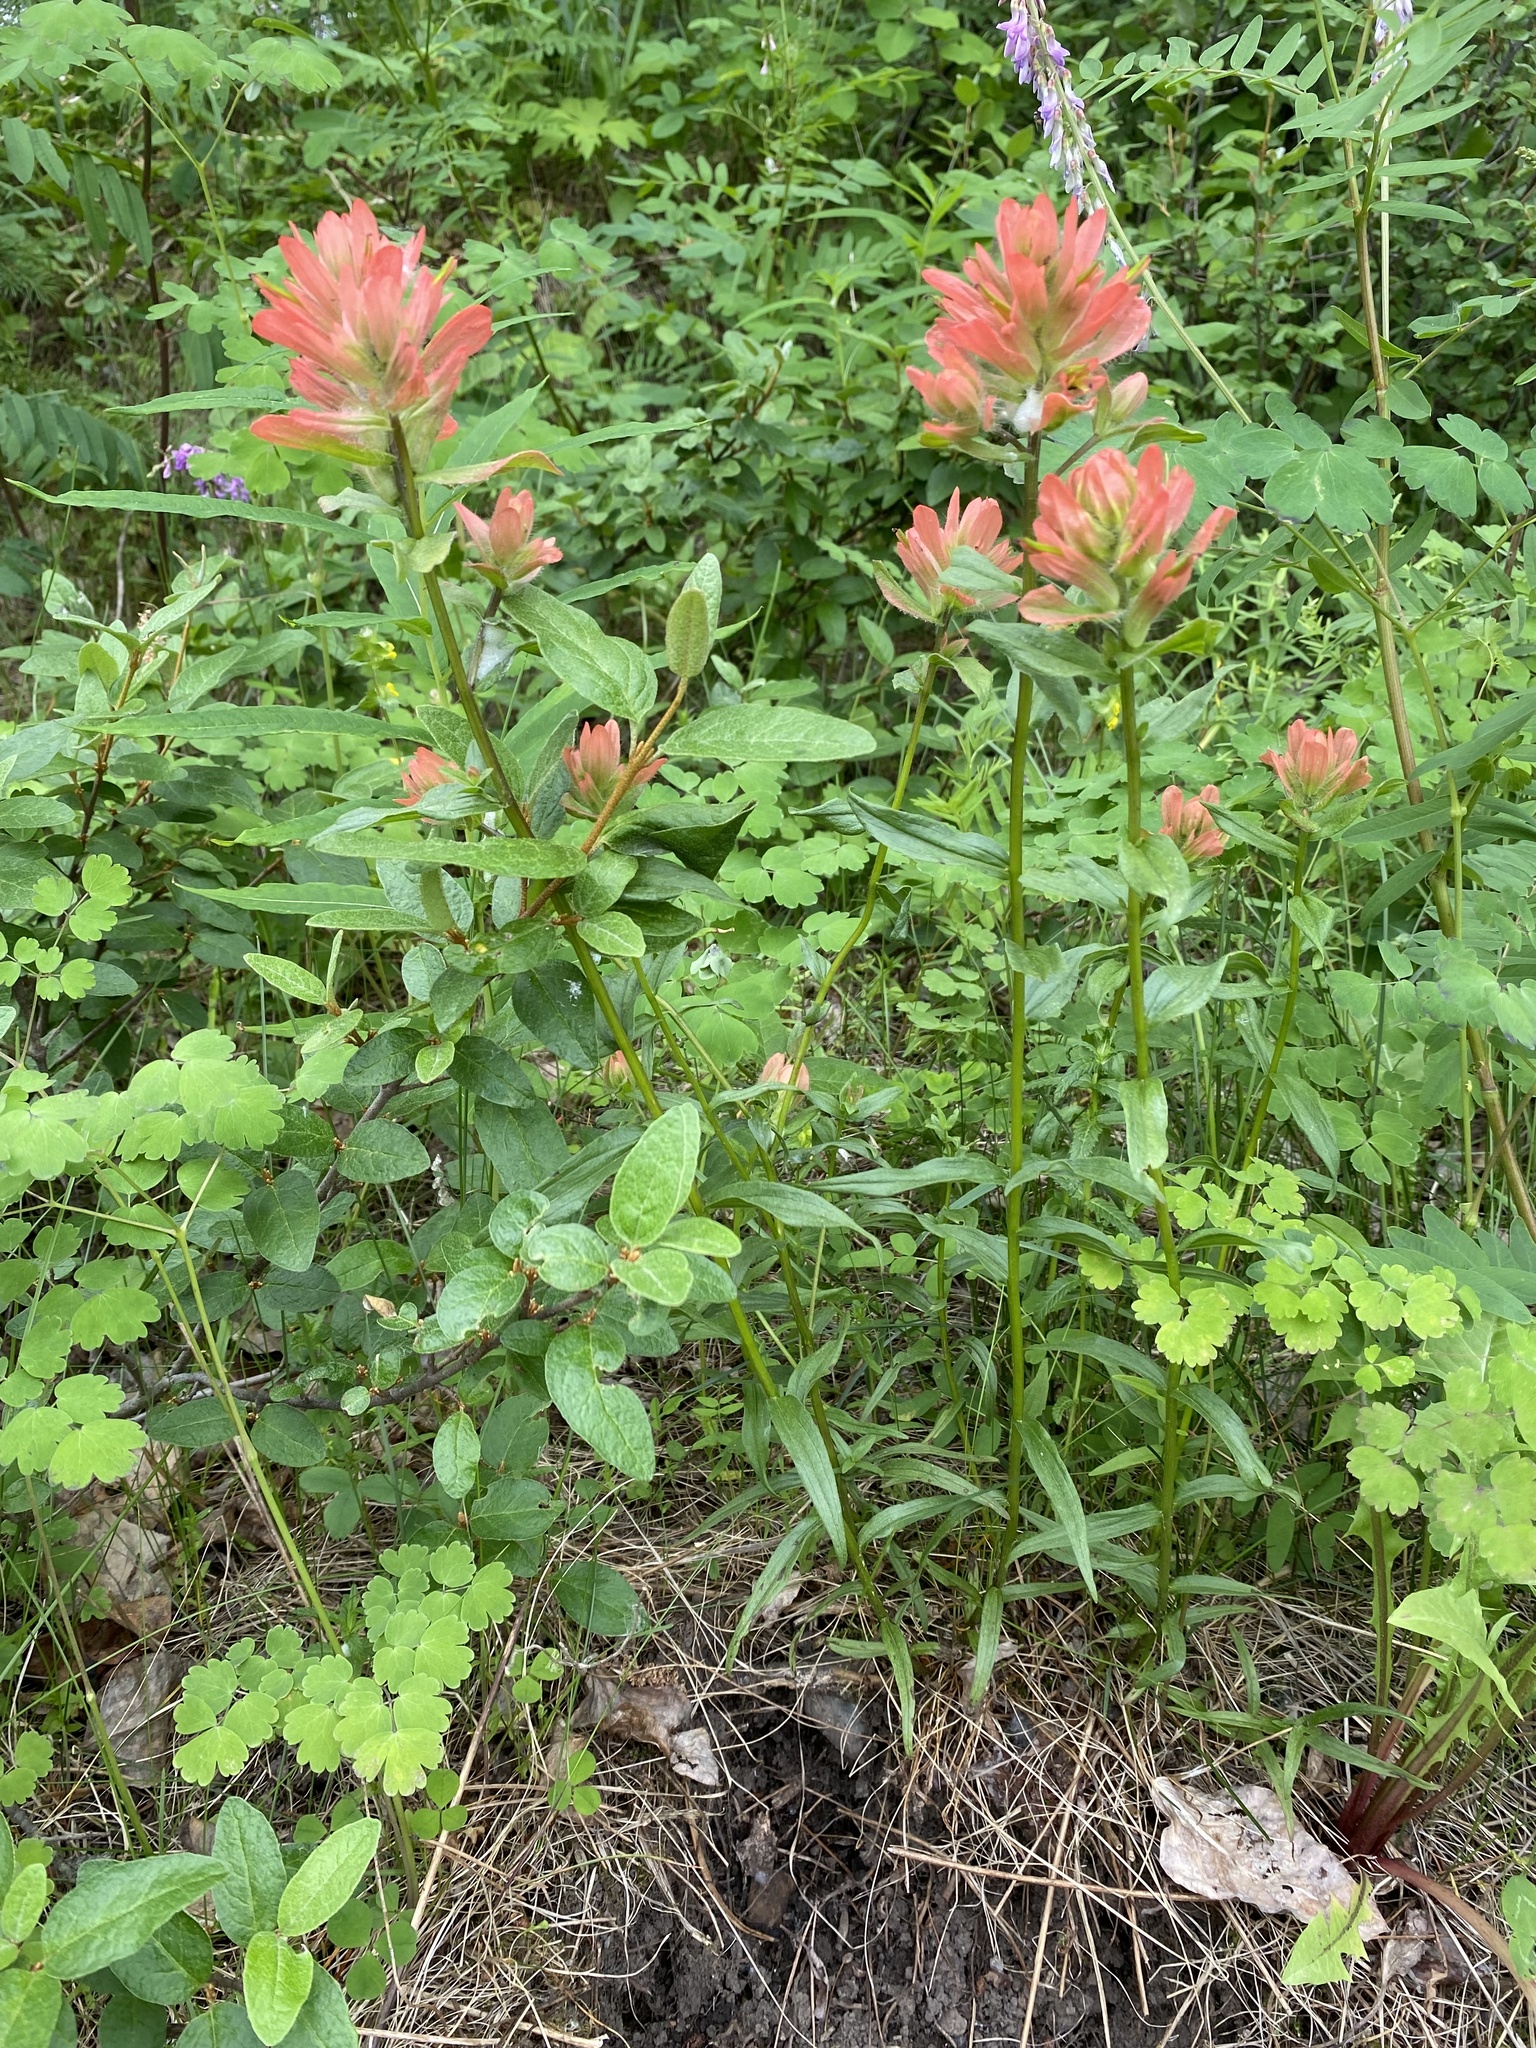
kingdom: Plantae
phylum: Tracheophyta
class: Magnoliopsida
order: Lamiales
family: Orobanchaceae
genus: Castilleja
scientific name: Castilleja miniata
